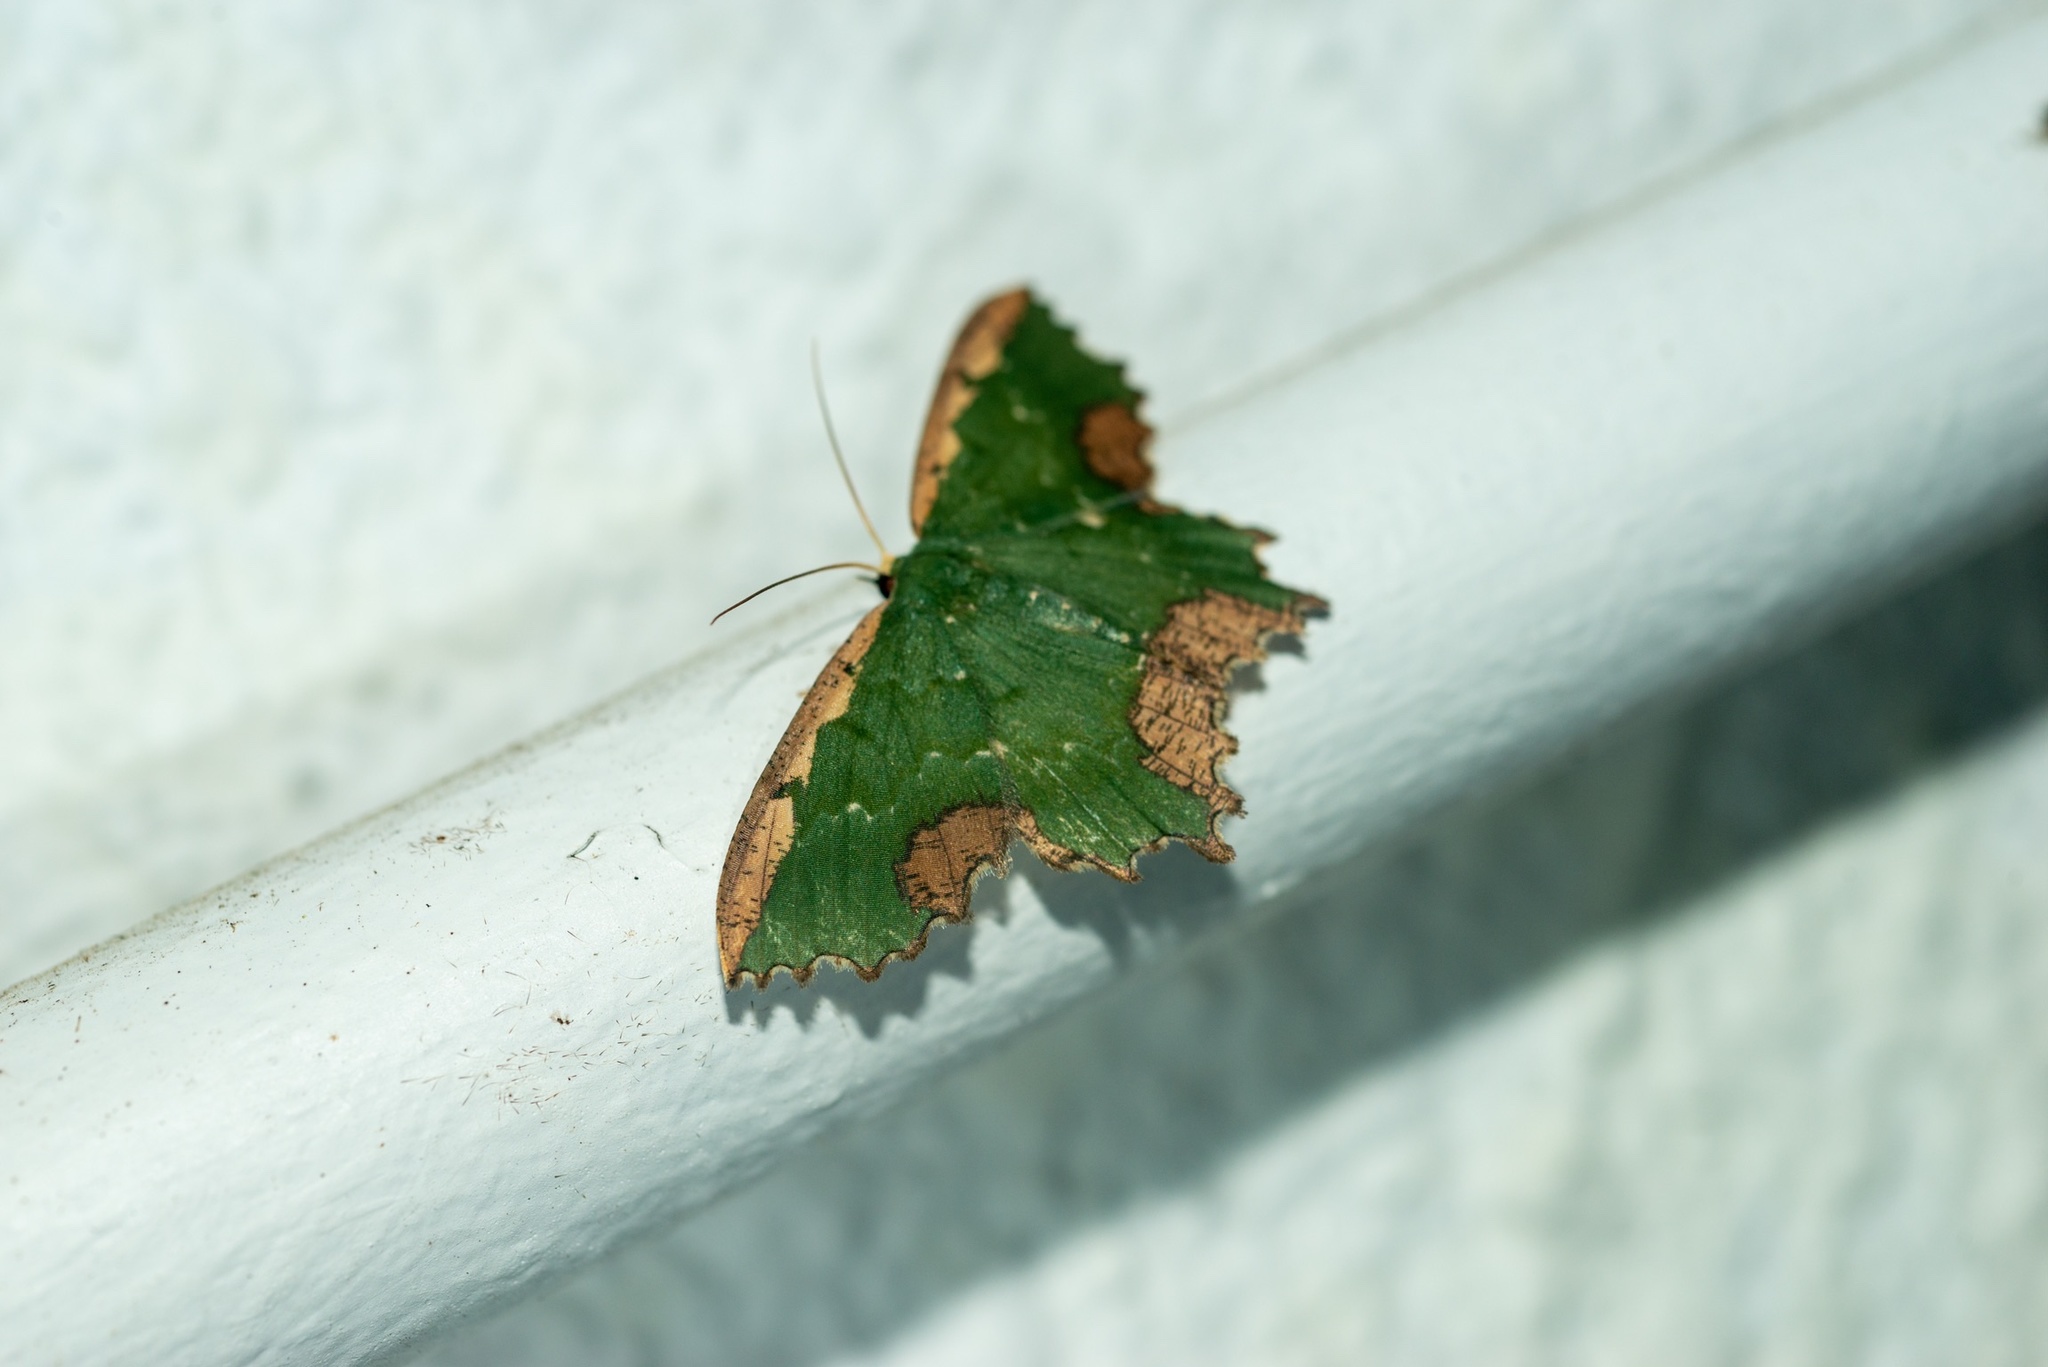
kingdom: Animalia
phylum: Arthropoda
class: Insecta
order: Lepidoptera
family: Geometridae
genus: Maxates
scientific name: Maxates coelataria
